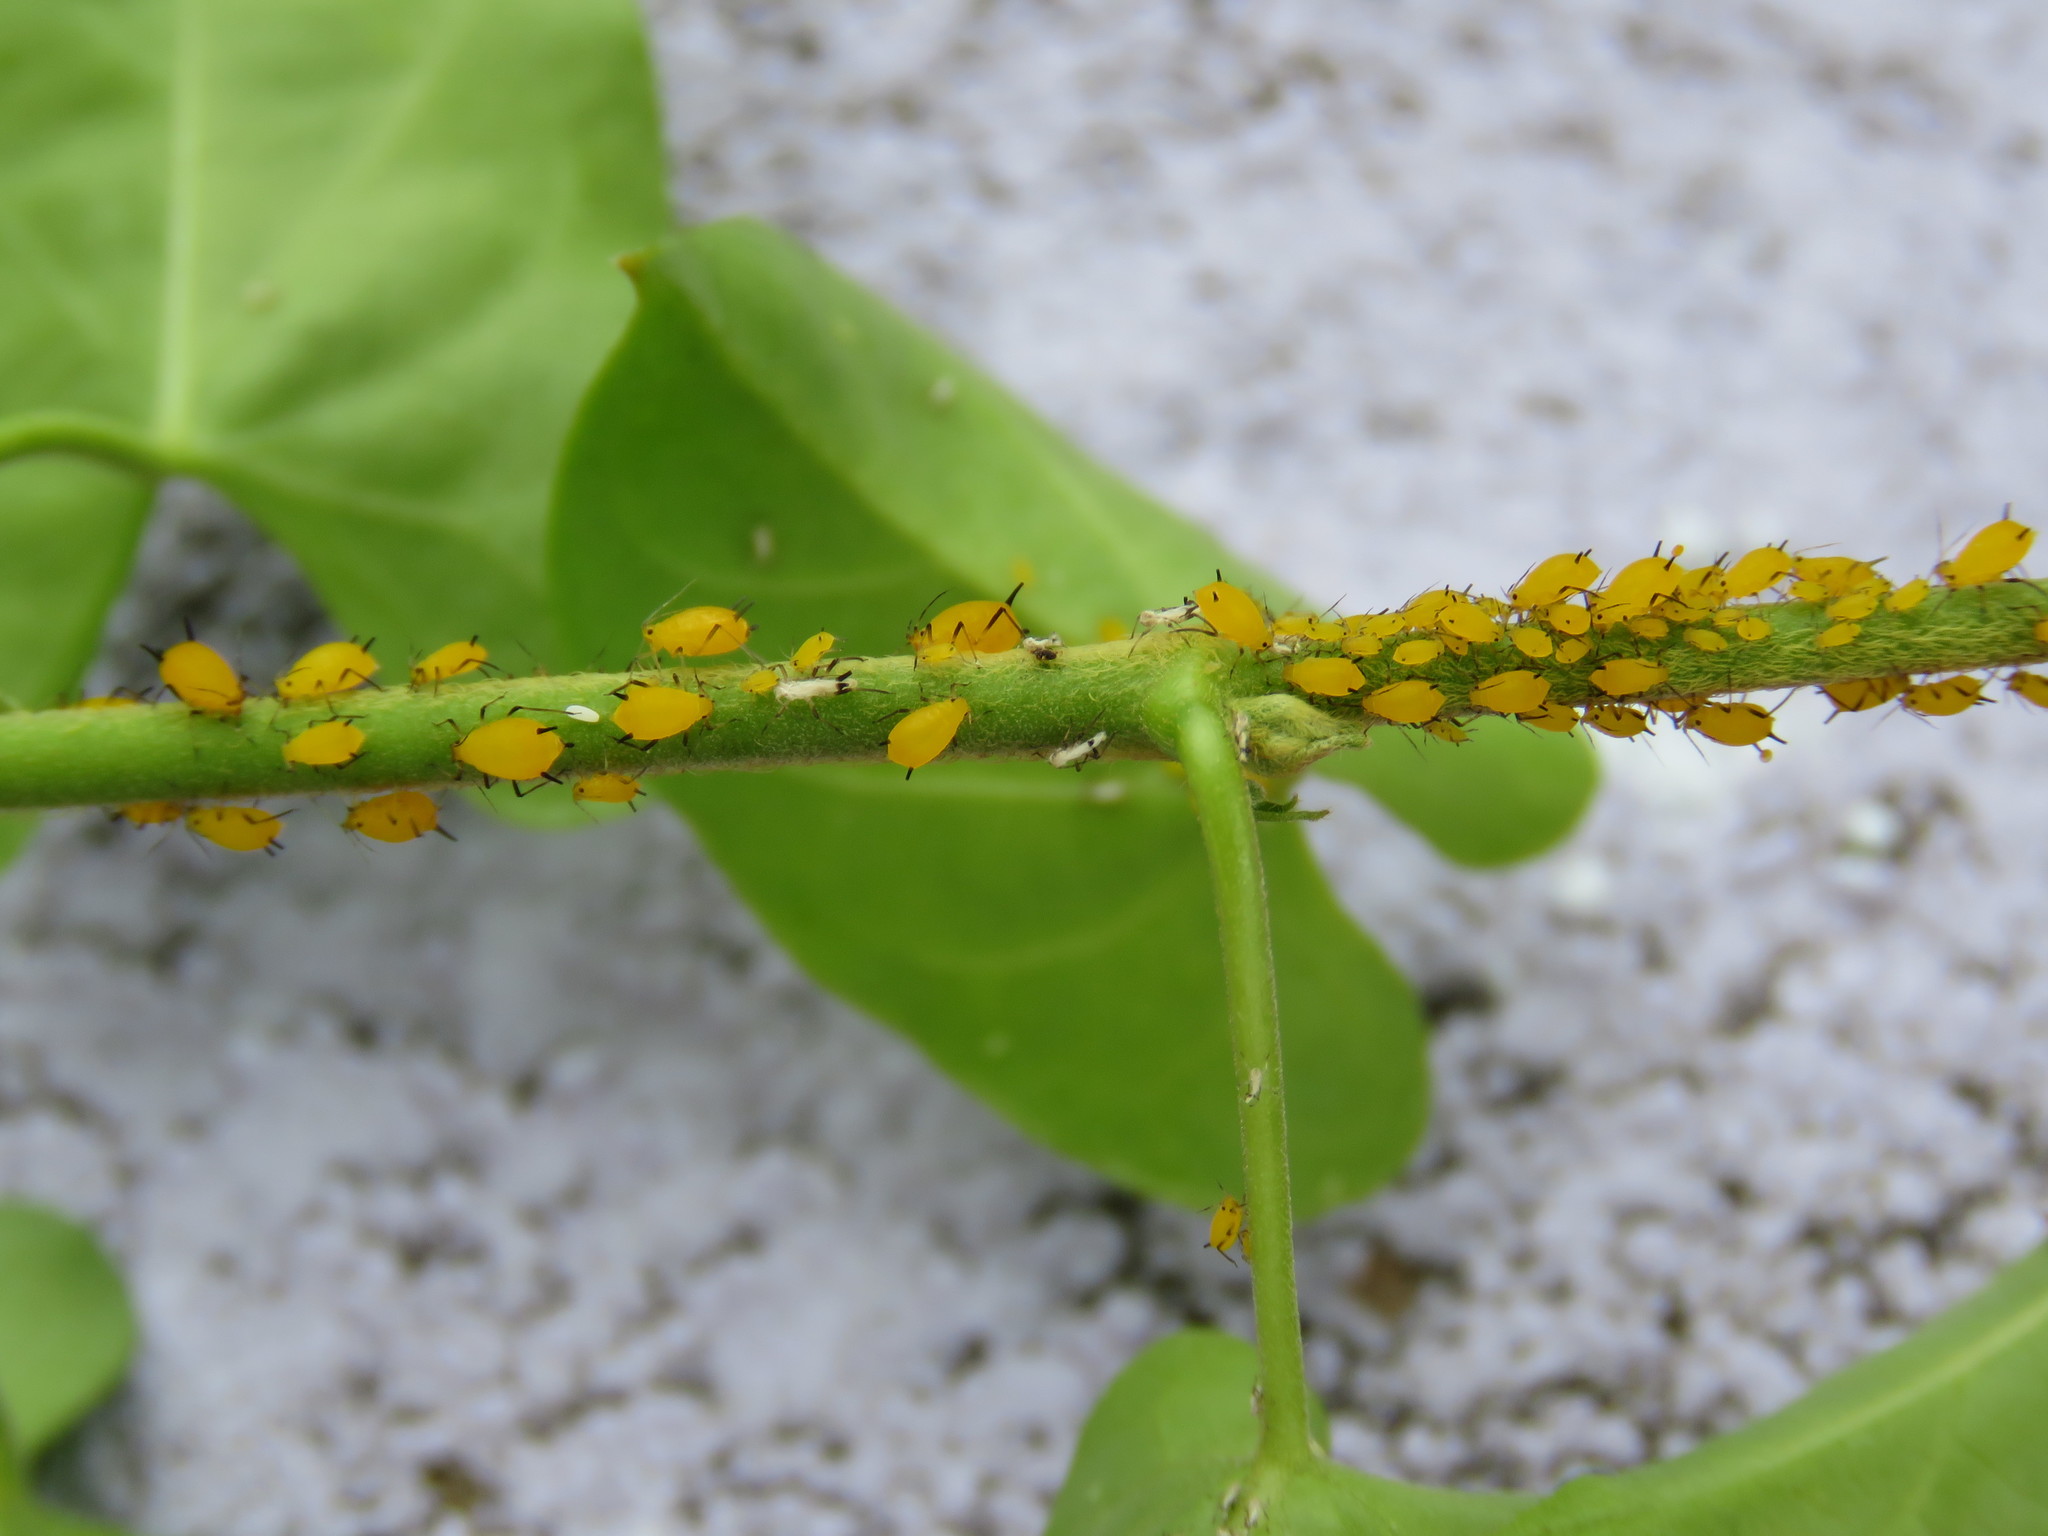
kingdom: Animalia
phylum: Arthropoda
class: Insecta
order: Hemiptera
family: Aphididae
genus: Aphis
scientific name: Aphis nerii
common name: Oleander aphid
